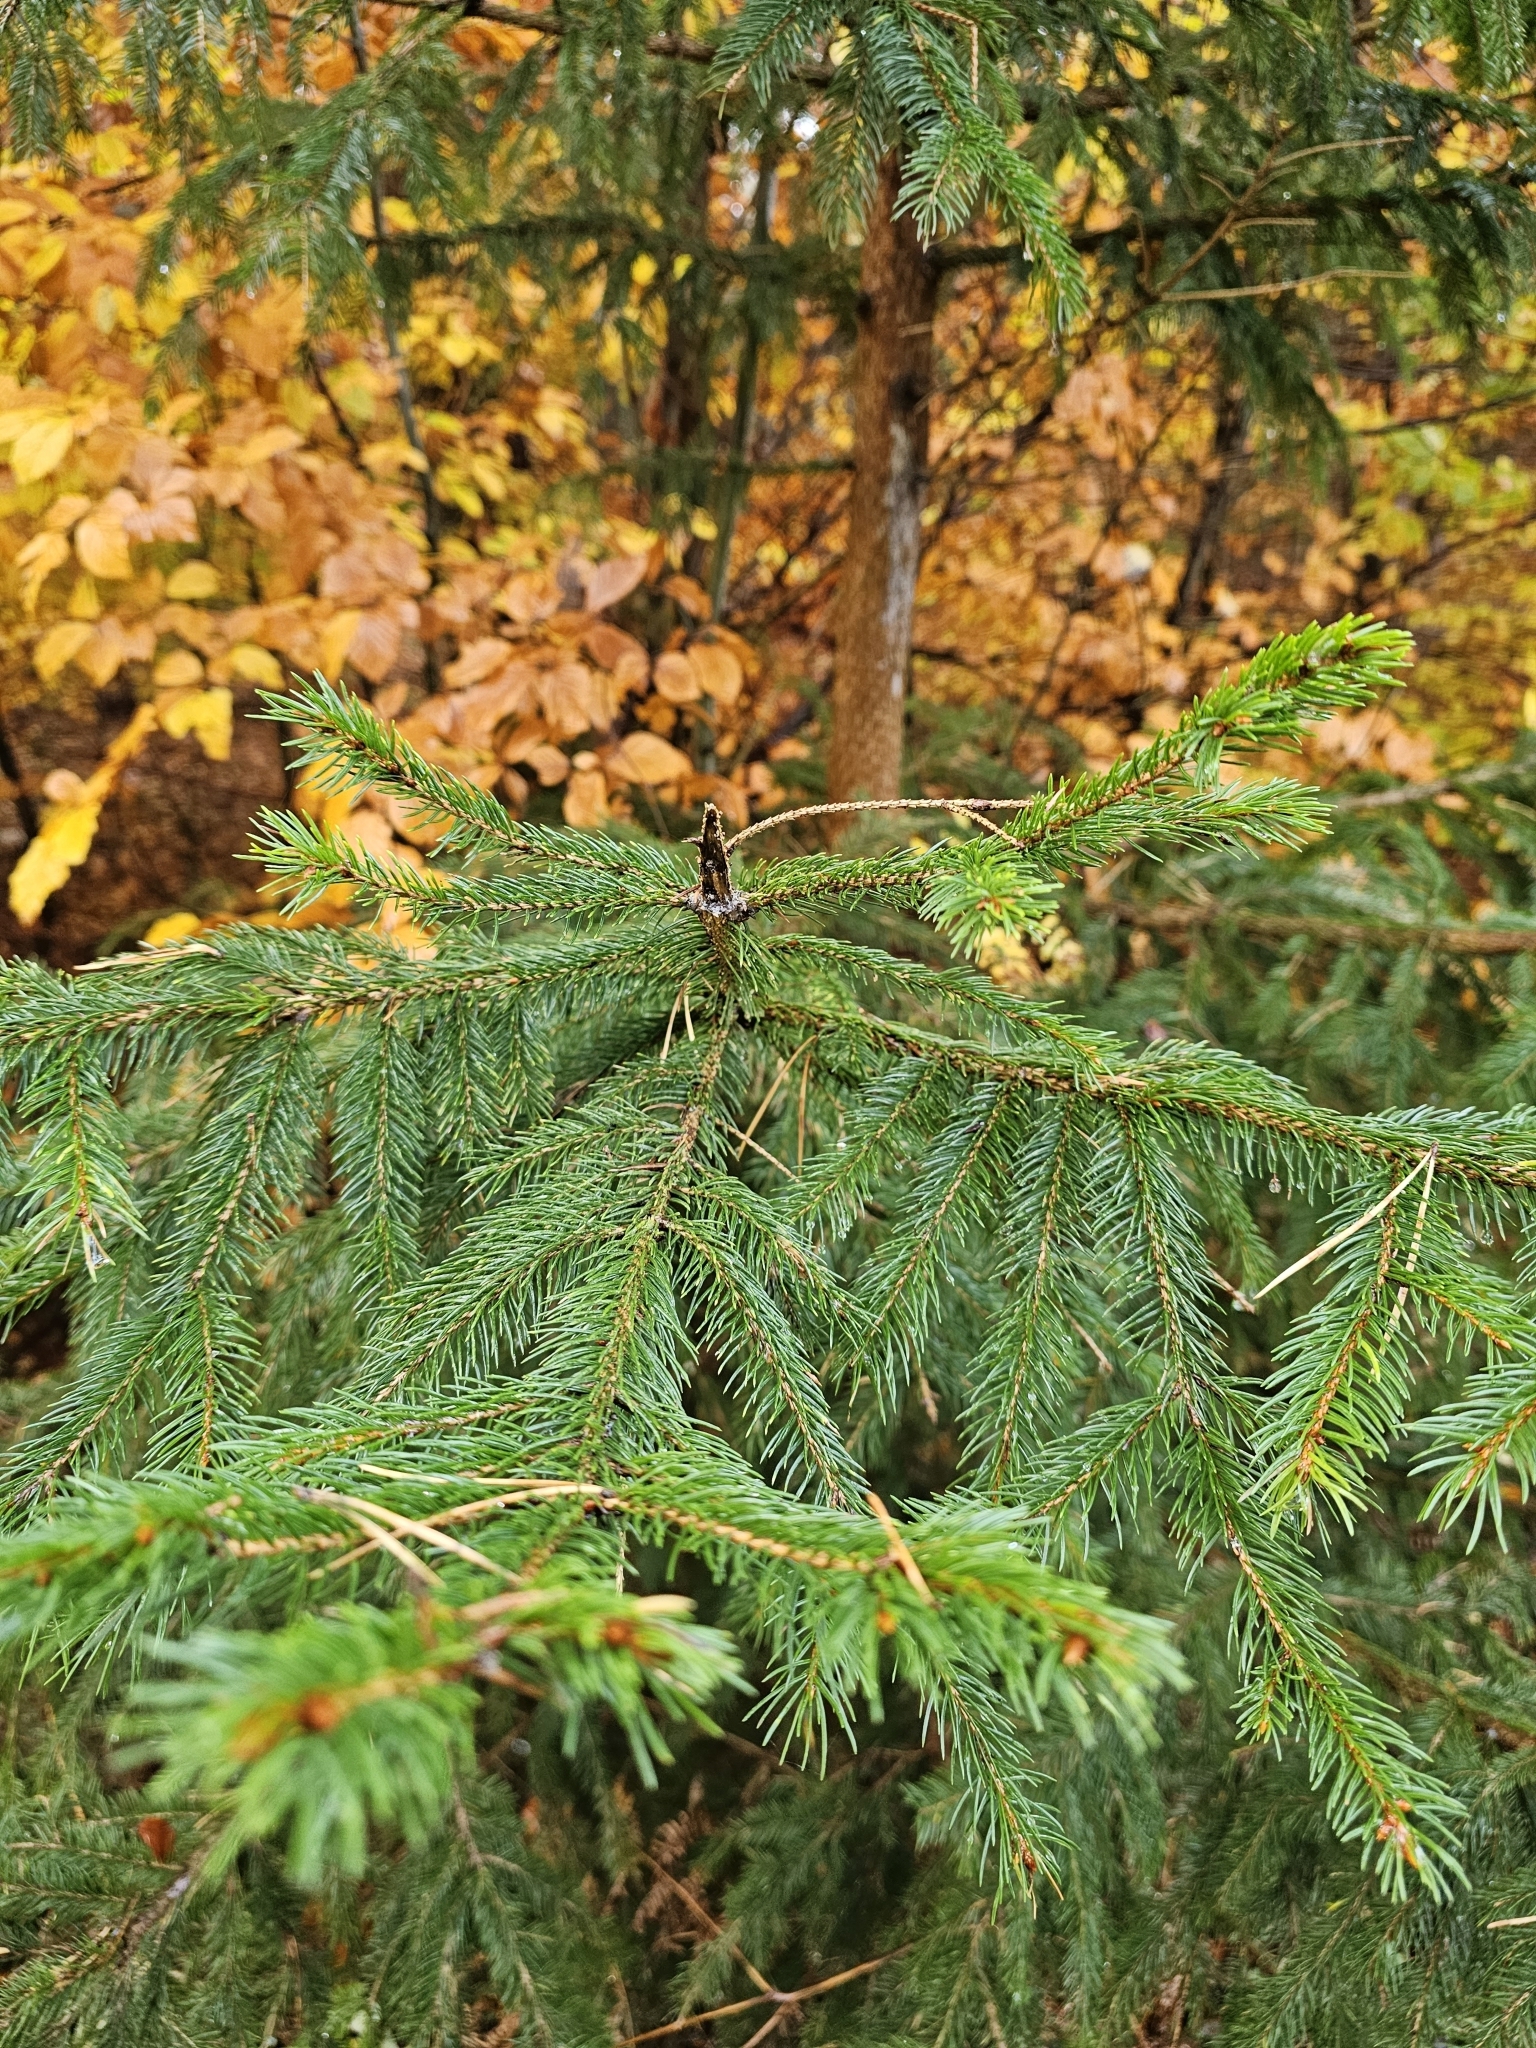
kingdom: Plantae
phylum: Tracheophyta
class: Pinopsida
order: Pinales
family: Pinaceae
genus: Picea
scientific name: Picea abies
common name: Norway spruce
